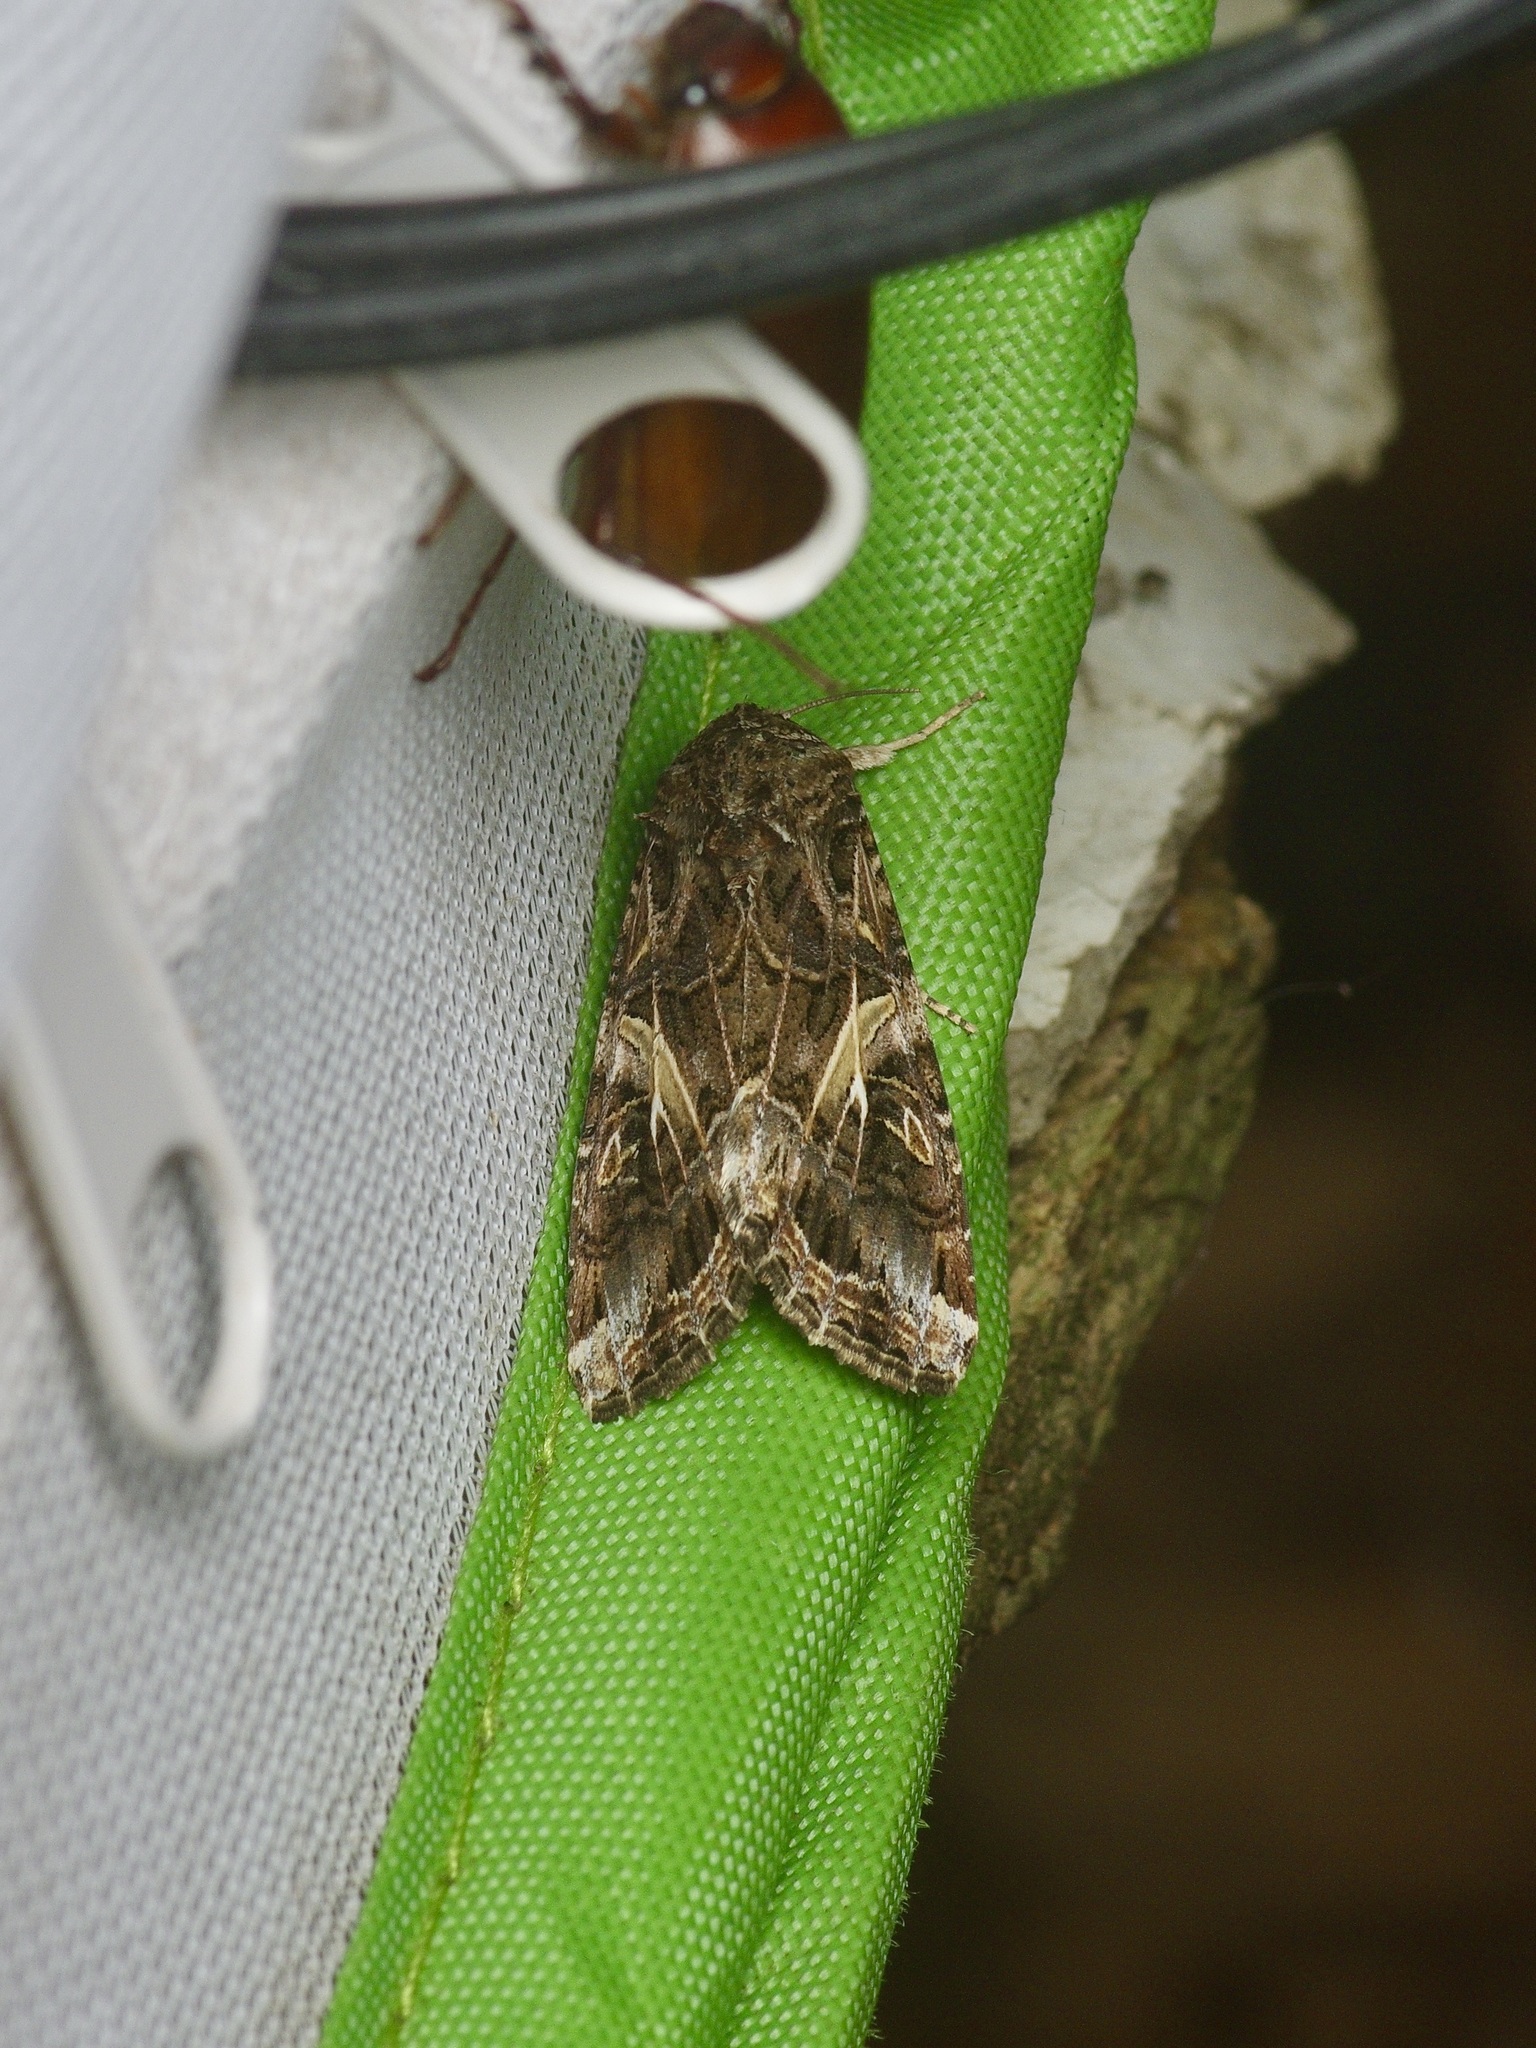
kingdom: Animalia
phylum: Arthropoda
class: Insecta
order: Lepidoptera
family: Noctuidae
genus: Spodoptera
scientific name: Spodoptera ornithogalli
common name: Yellow-striped armyworm
